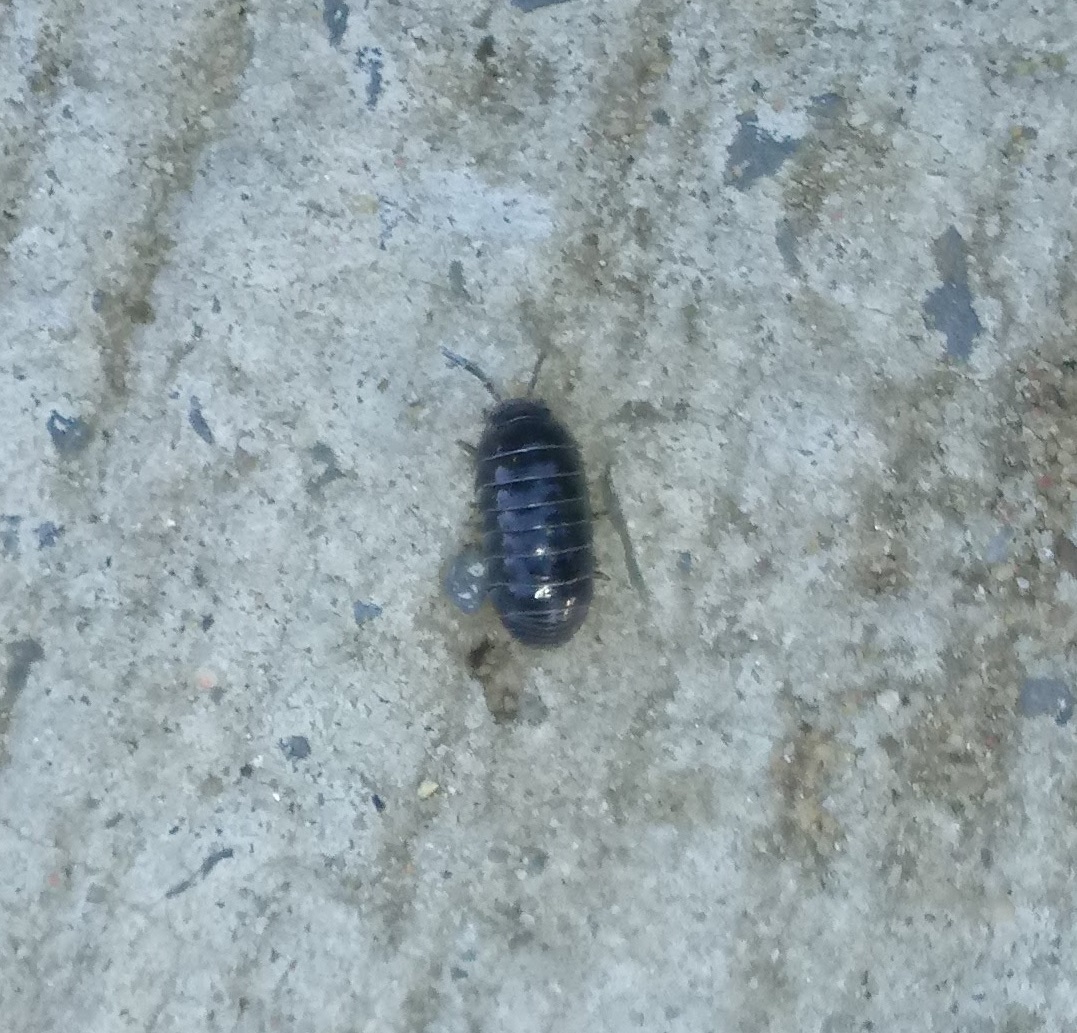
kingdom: Animalia
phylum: Arthropoda
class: Malacostraca
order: Isopoda
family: Armadillidiidae
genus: Armadillidium
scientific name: Armadillidium vulgare
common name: Common pill woodlouse
